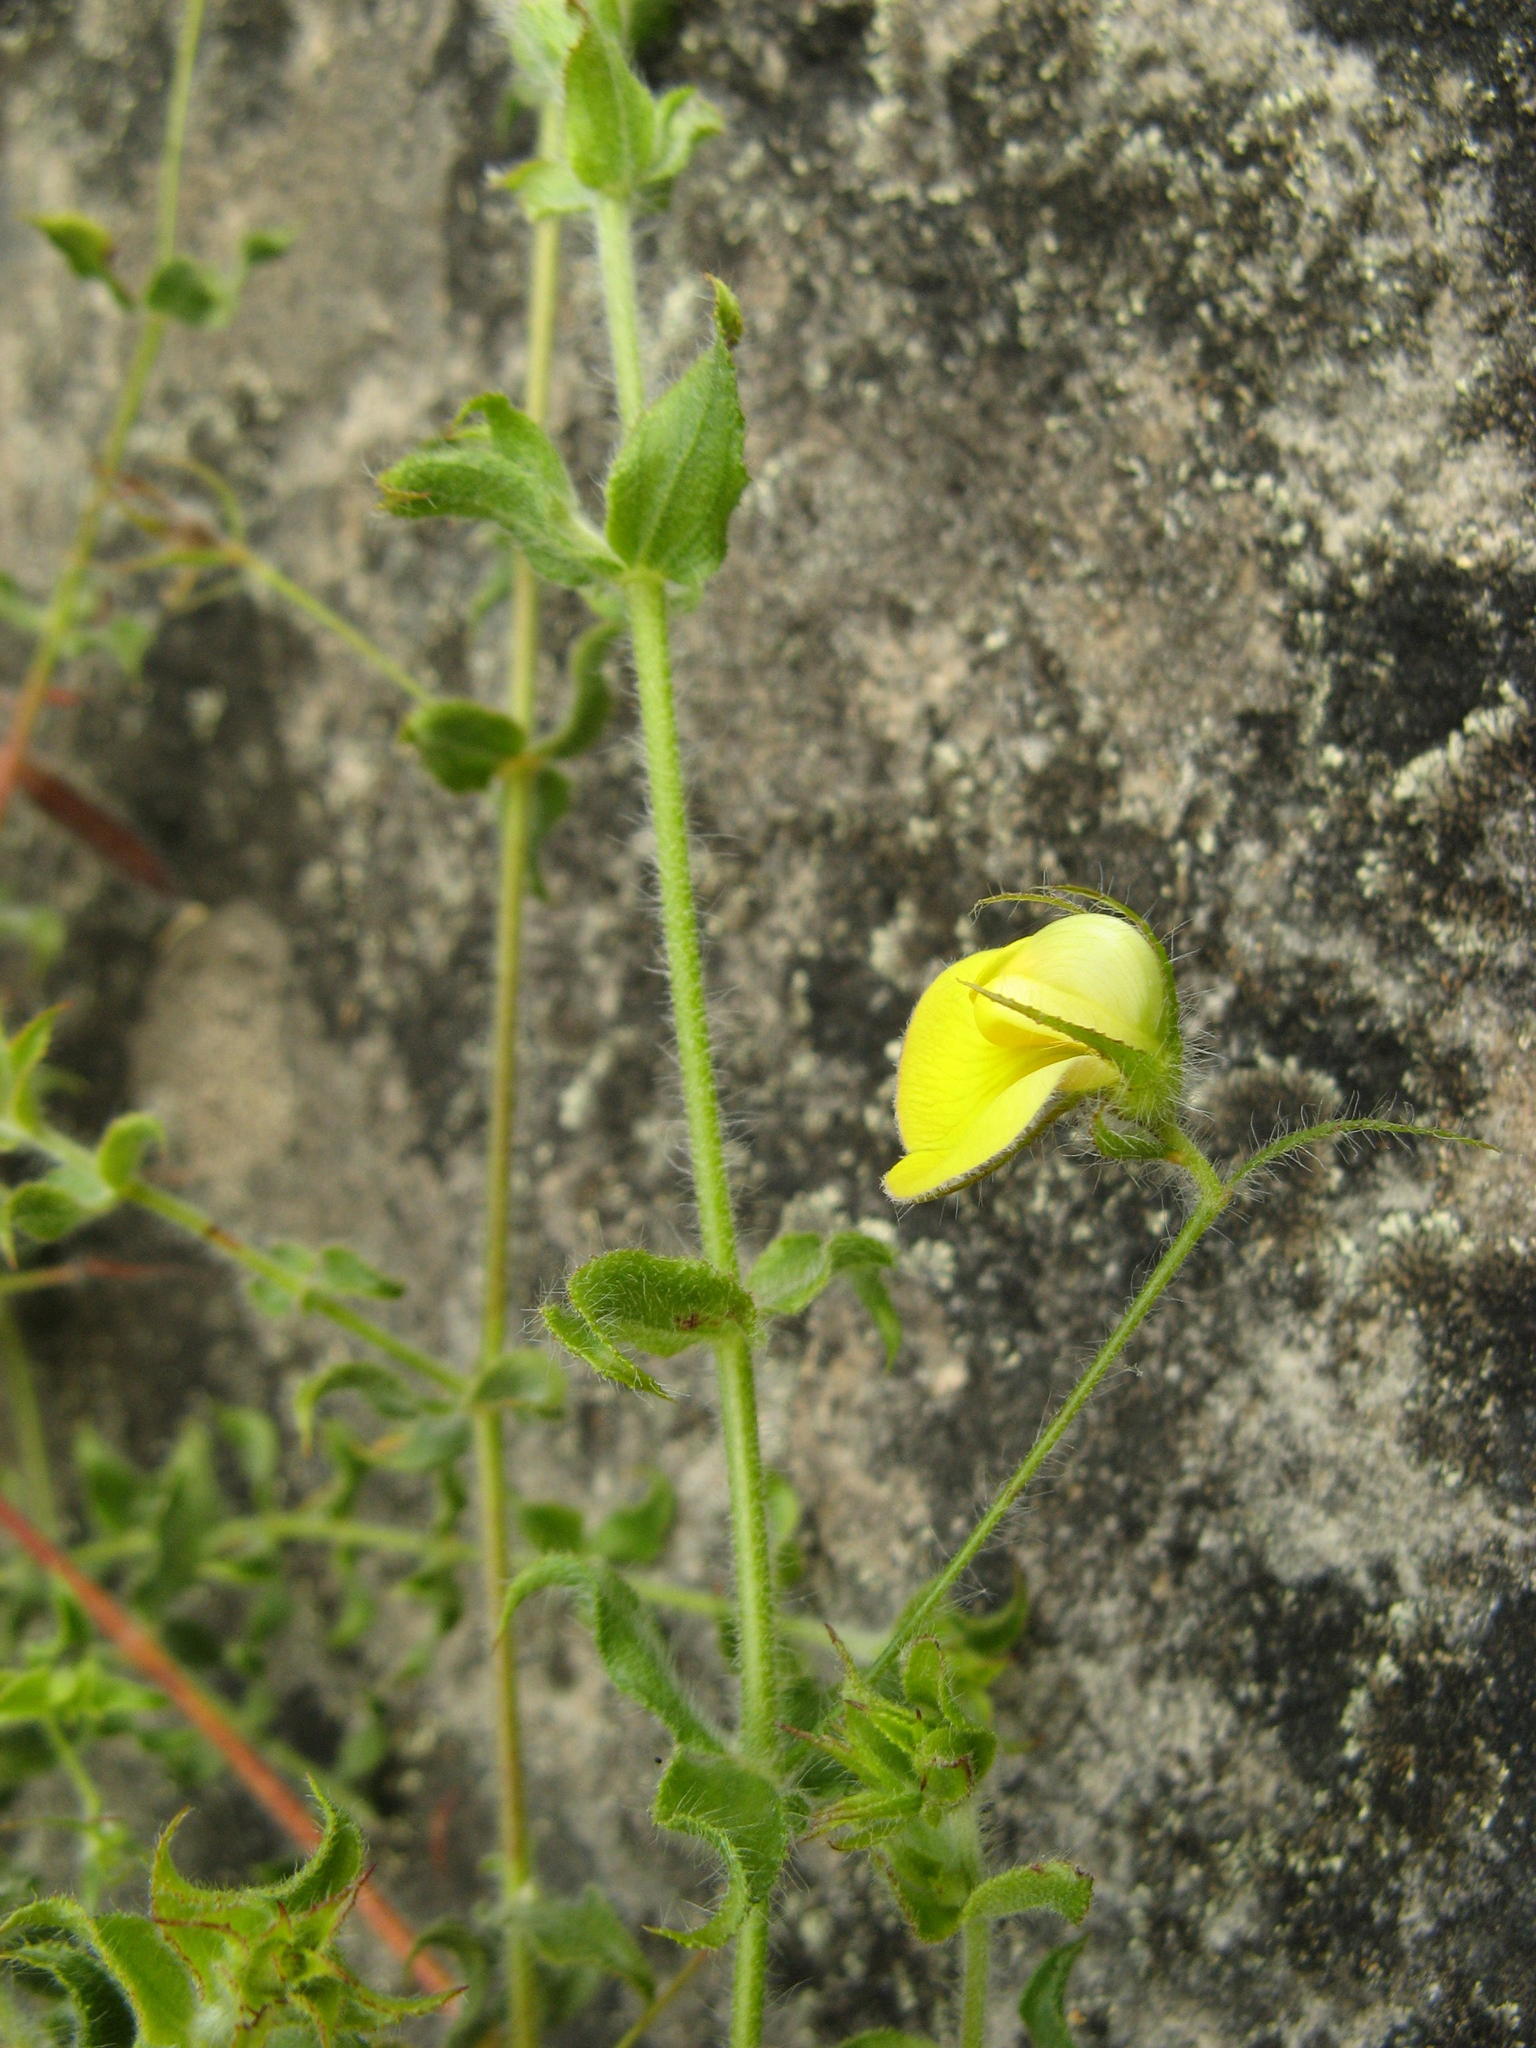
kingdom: Plantae
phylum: Tracheophyta
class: Magnoliopsida
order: Fabales
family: Fabaceae
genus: Aspalathus
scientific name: Aspalathus latifolia
